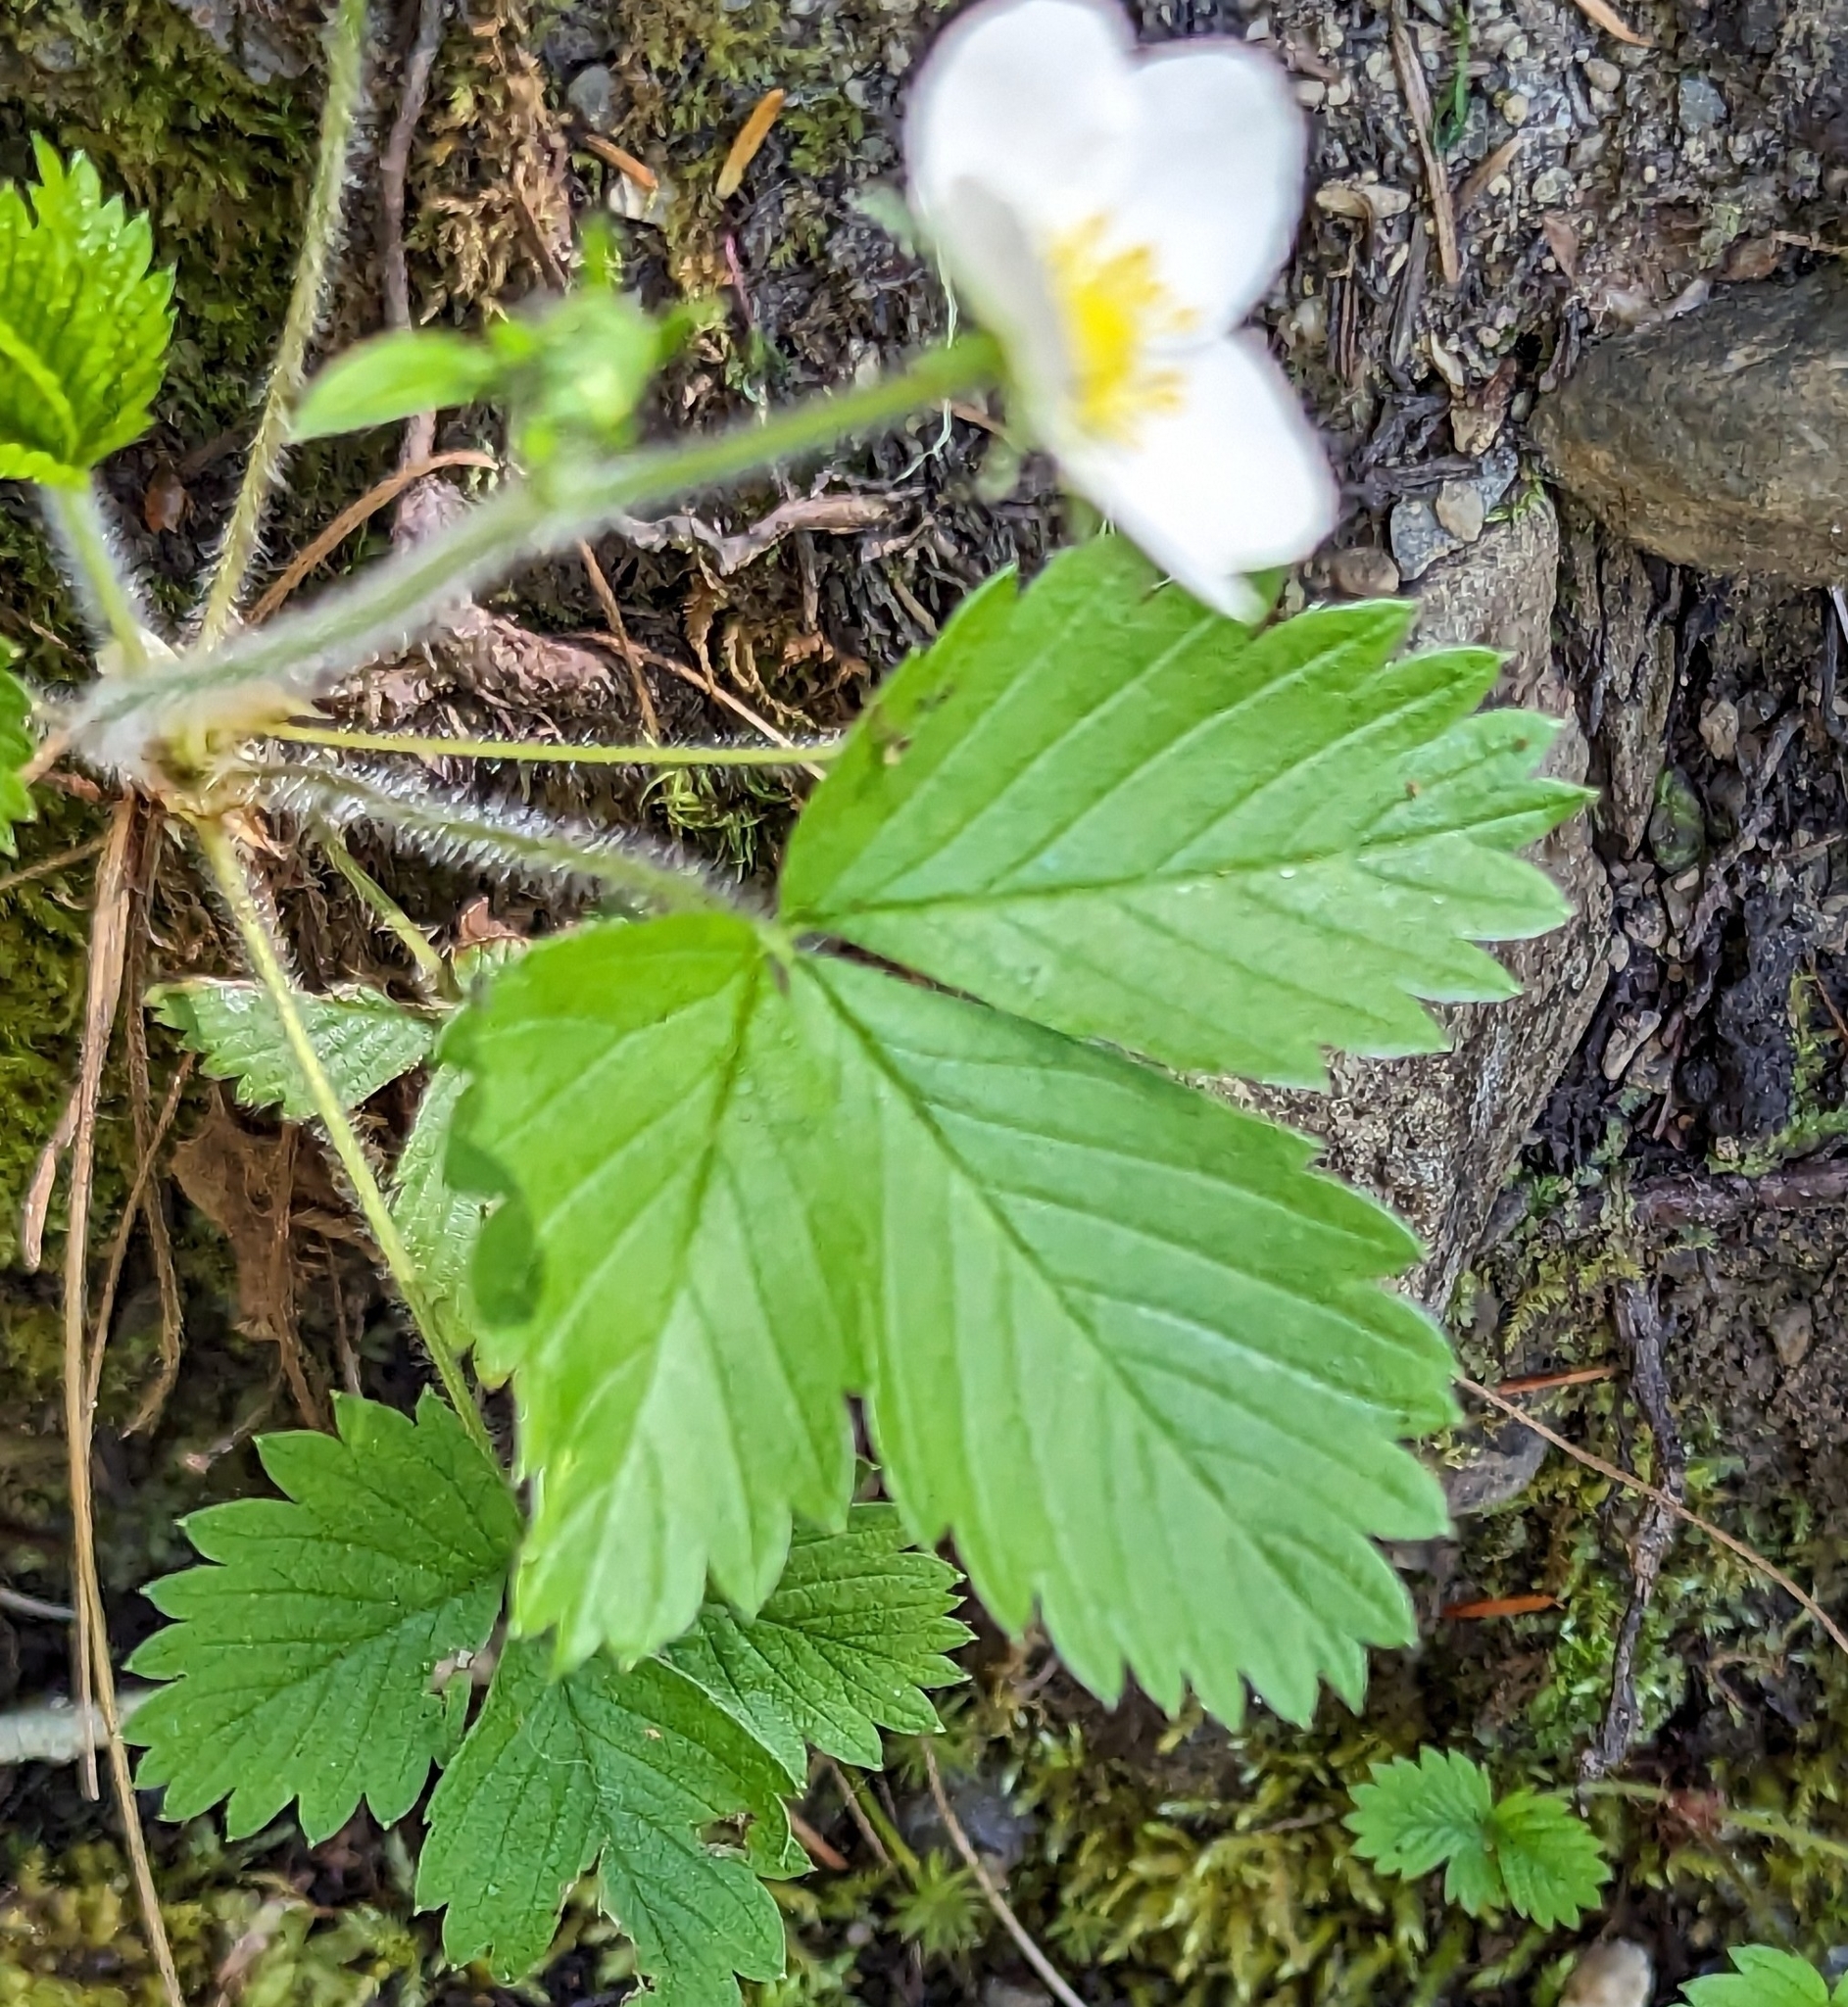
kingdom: Plantae
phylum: Tracheophyta
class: Magnoliopsida
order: Rosales
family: Rosaceae
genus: Fragaria
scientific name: Fragaria vesca
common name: Wild strawberry
